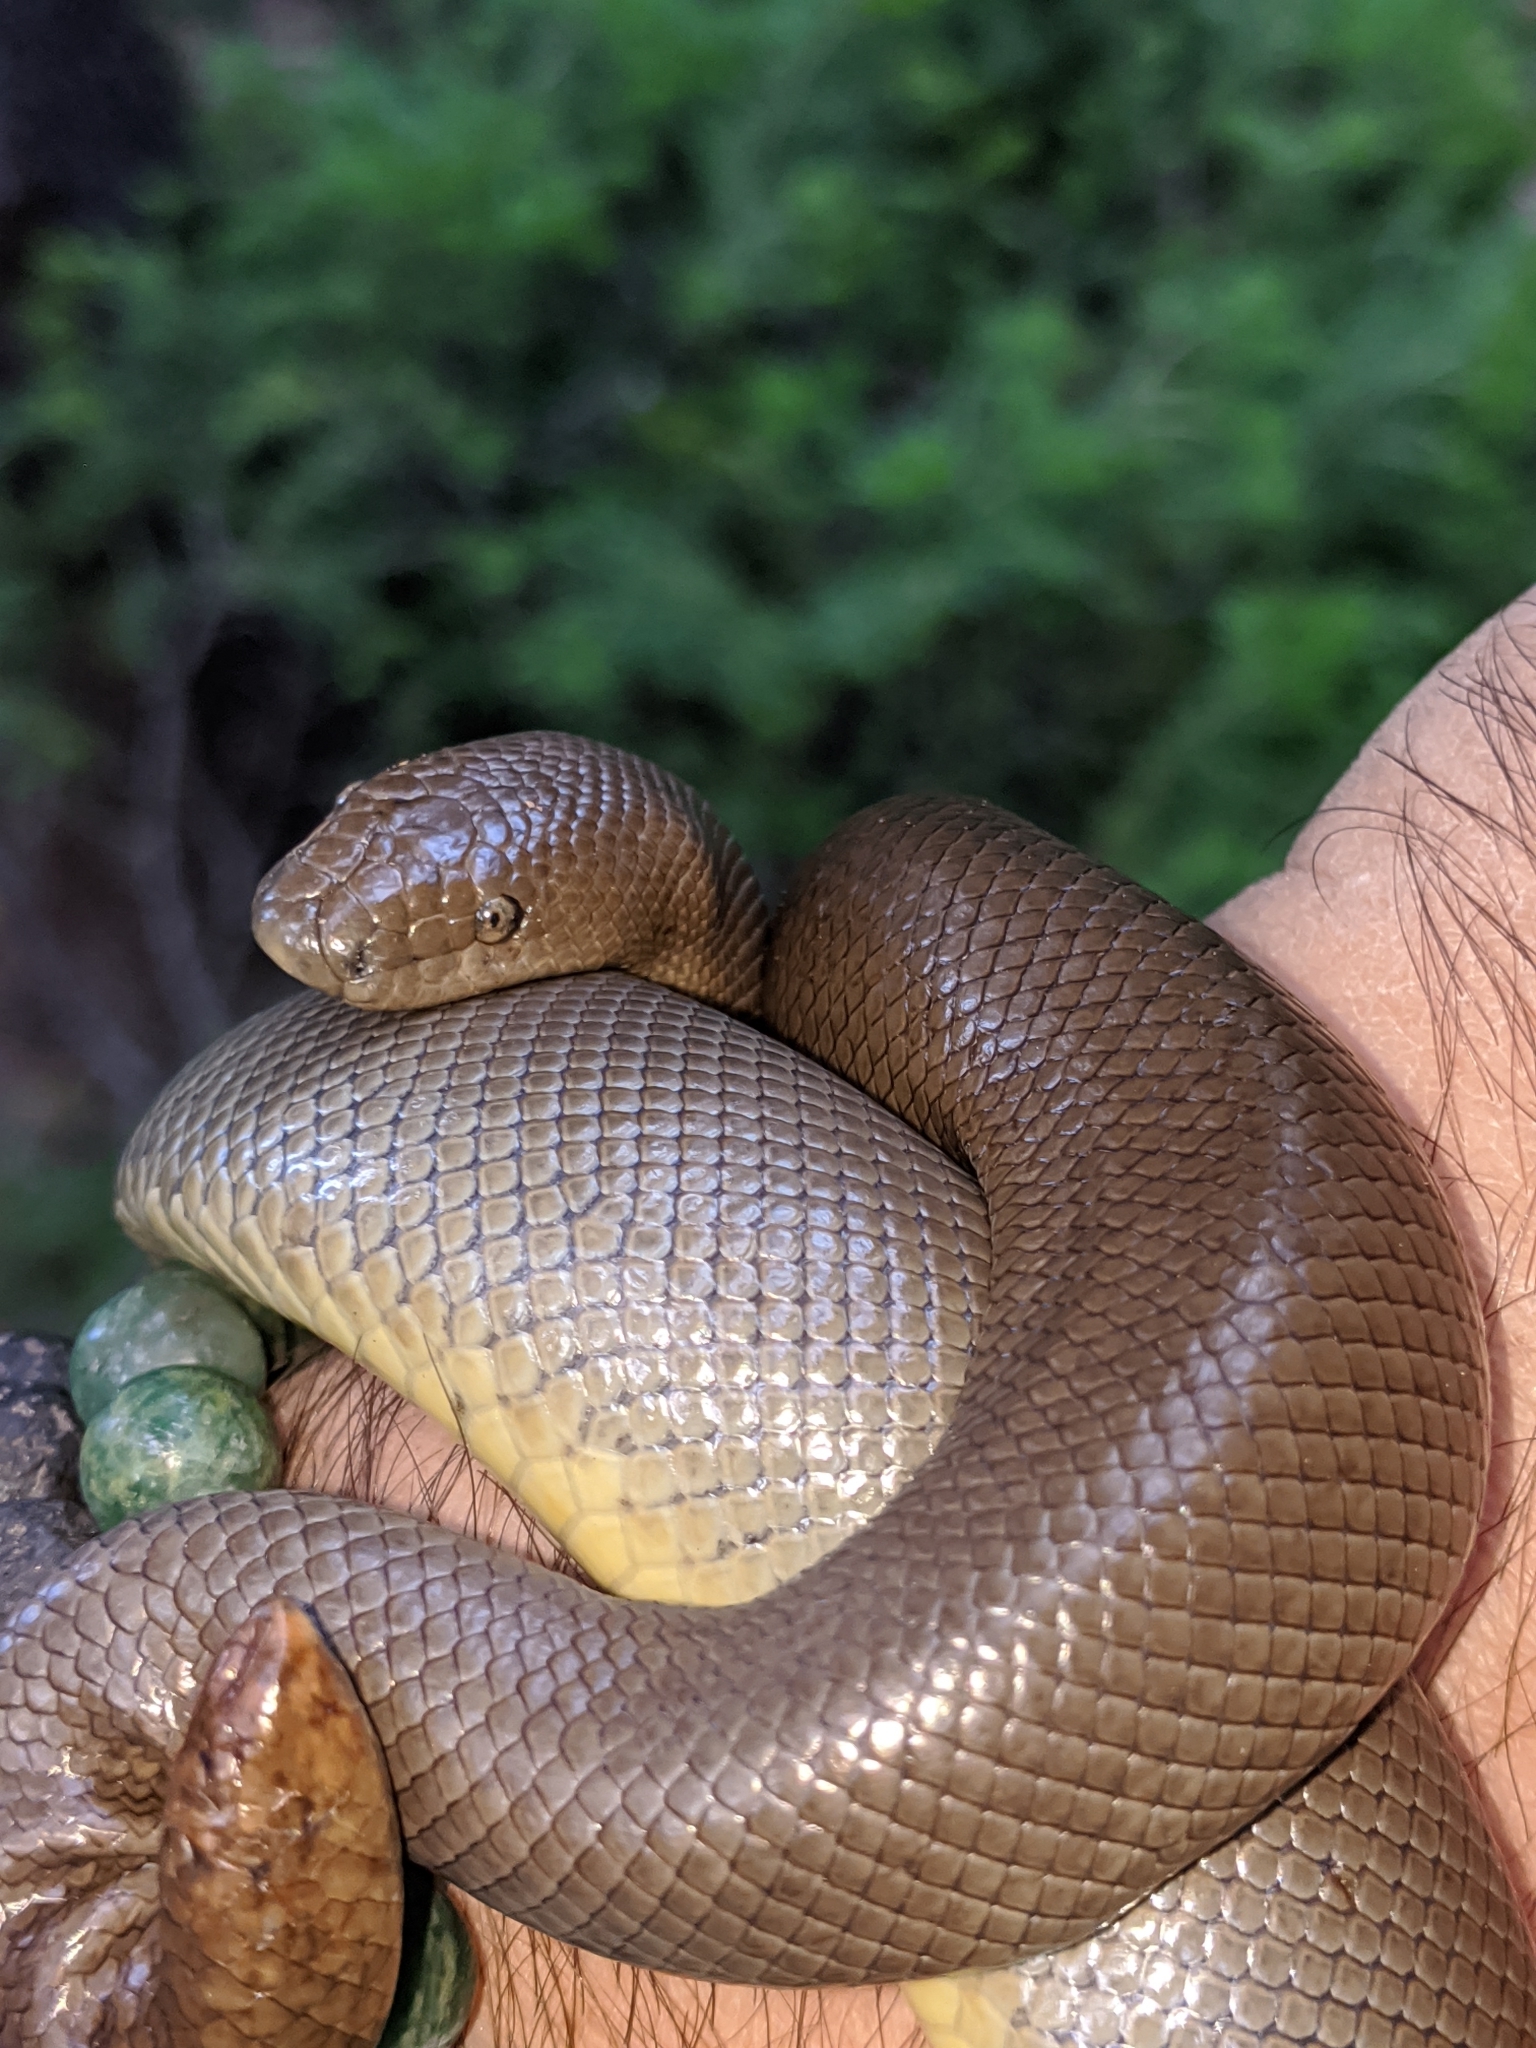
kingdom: Animalia
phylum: Chordata
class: Squamata
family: Boidae
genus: Charina
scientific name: Charina bottae
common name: Northern rubber boa
